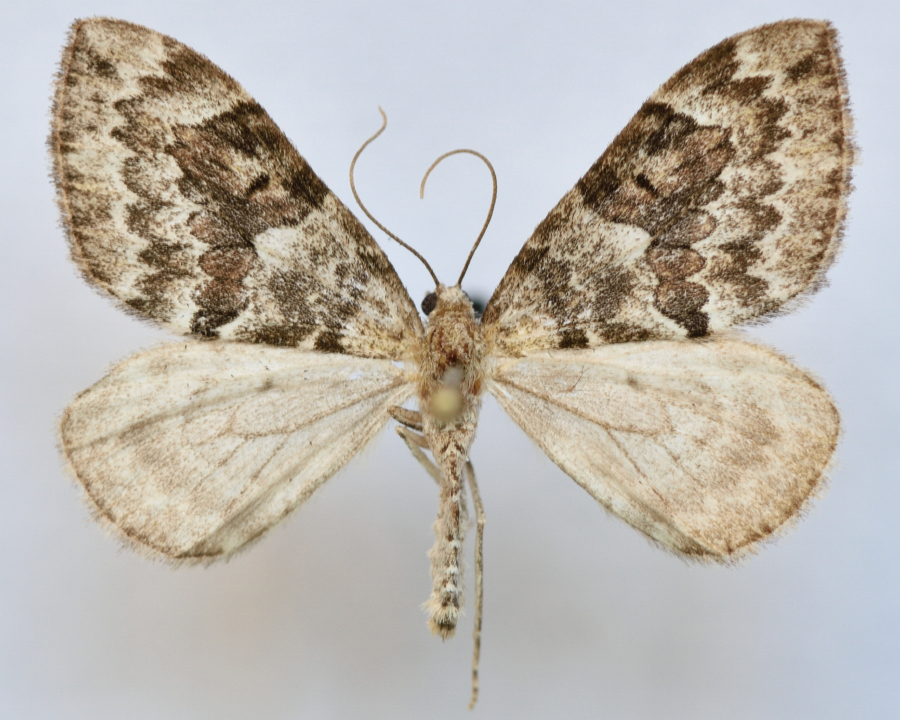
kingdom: Animalia
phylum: Arthropoda
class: Insecta
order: Lepidoptera
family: Geometridae
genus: Thera
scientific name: Thera variata
